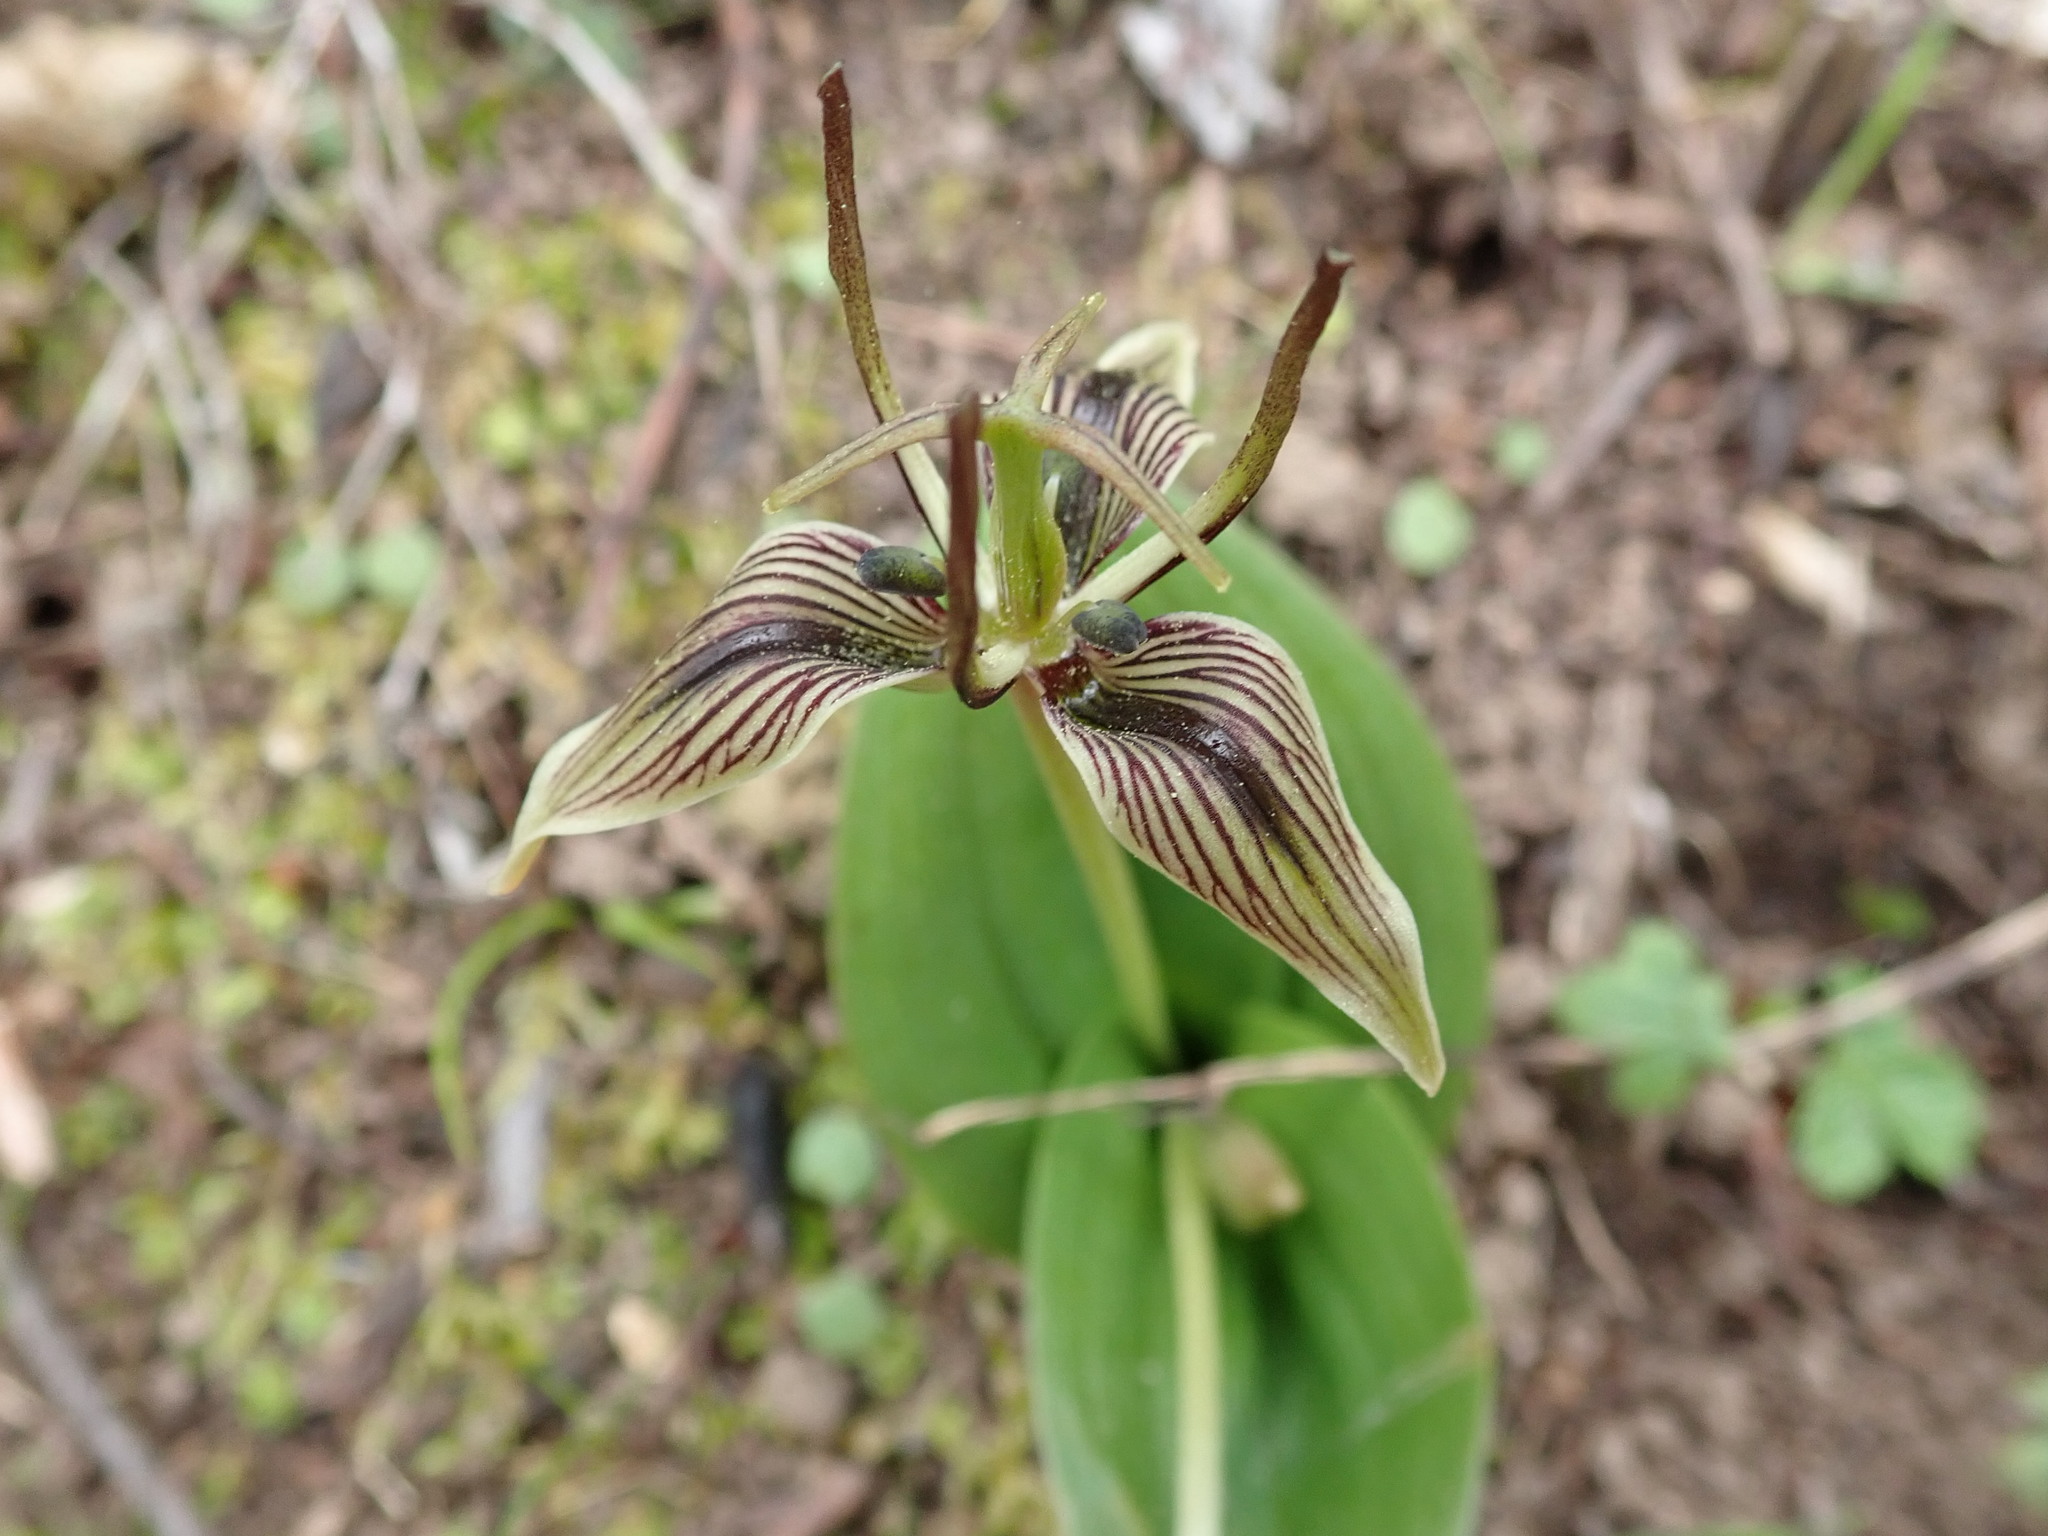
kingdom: Plantae
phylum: Tracheophyta
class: Liliopsida
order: Liliales
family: Liliaceae
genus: Scoliopus
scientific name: Scoliopus bigelovii
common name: Foetid adder's-tongue
